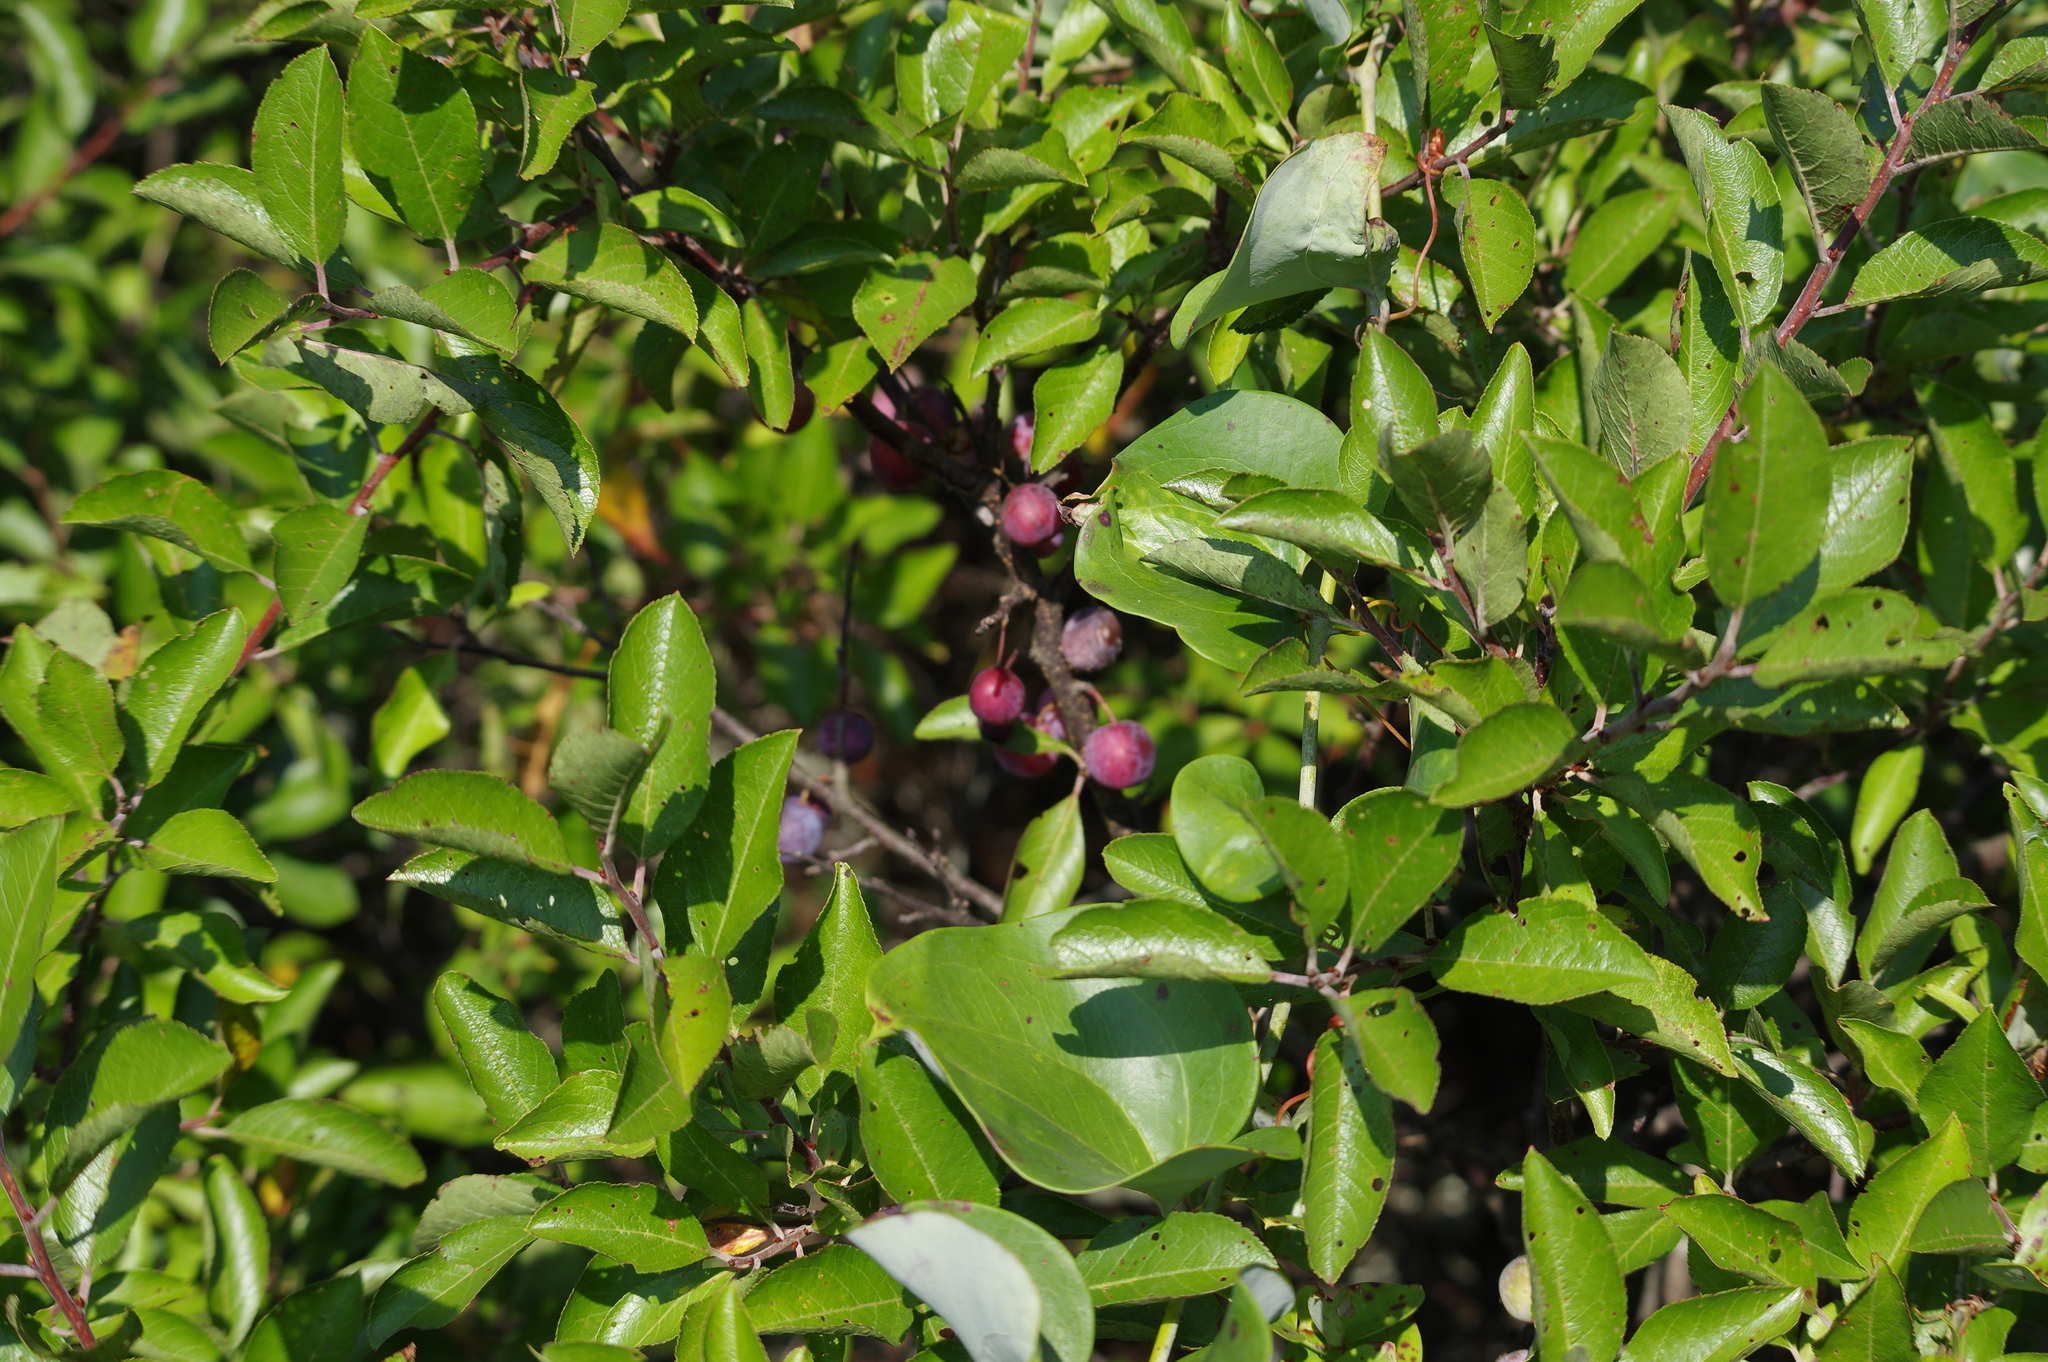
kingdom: Plantae
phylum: Tracheophyta
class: Magnoliopsida
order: Rosales
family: Rosaceae
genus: Prunus
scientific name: Prunus maritima
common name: Beach plum
